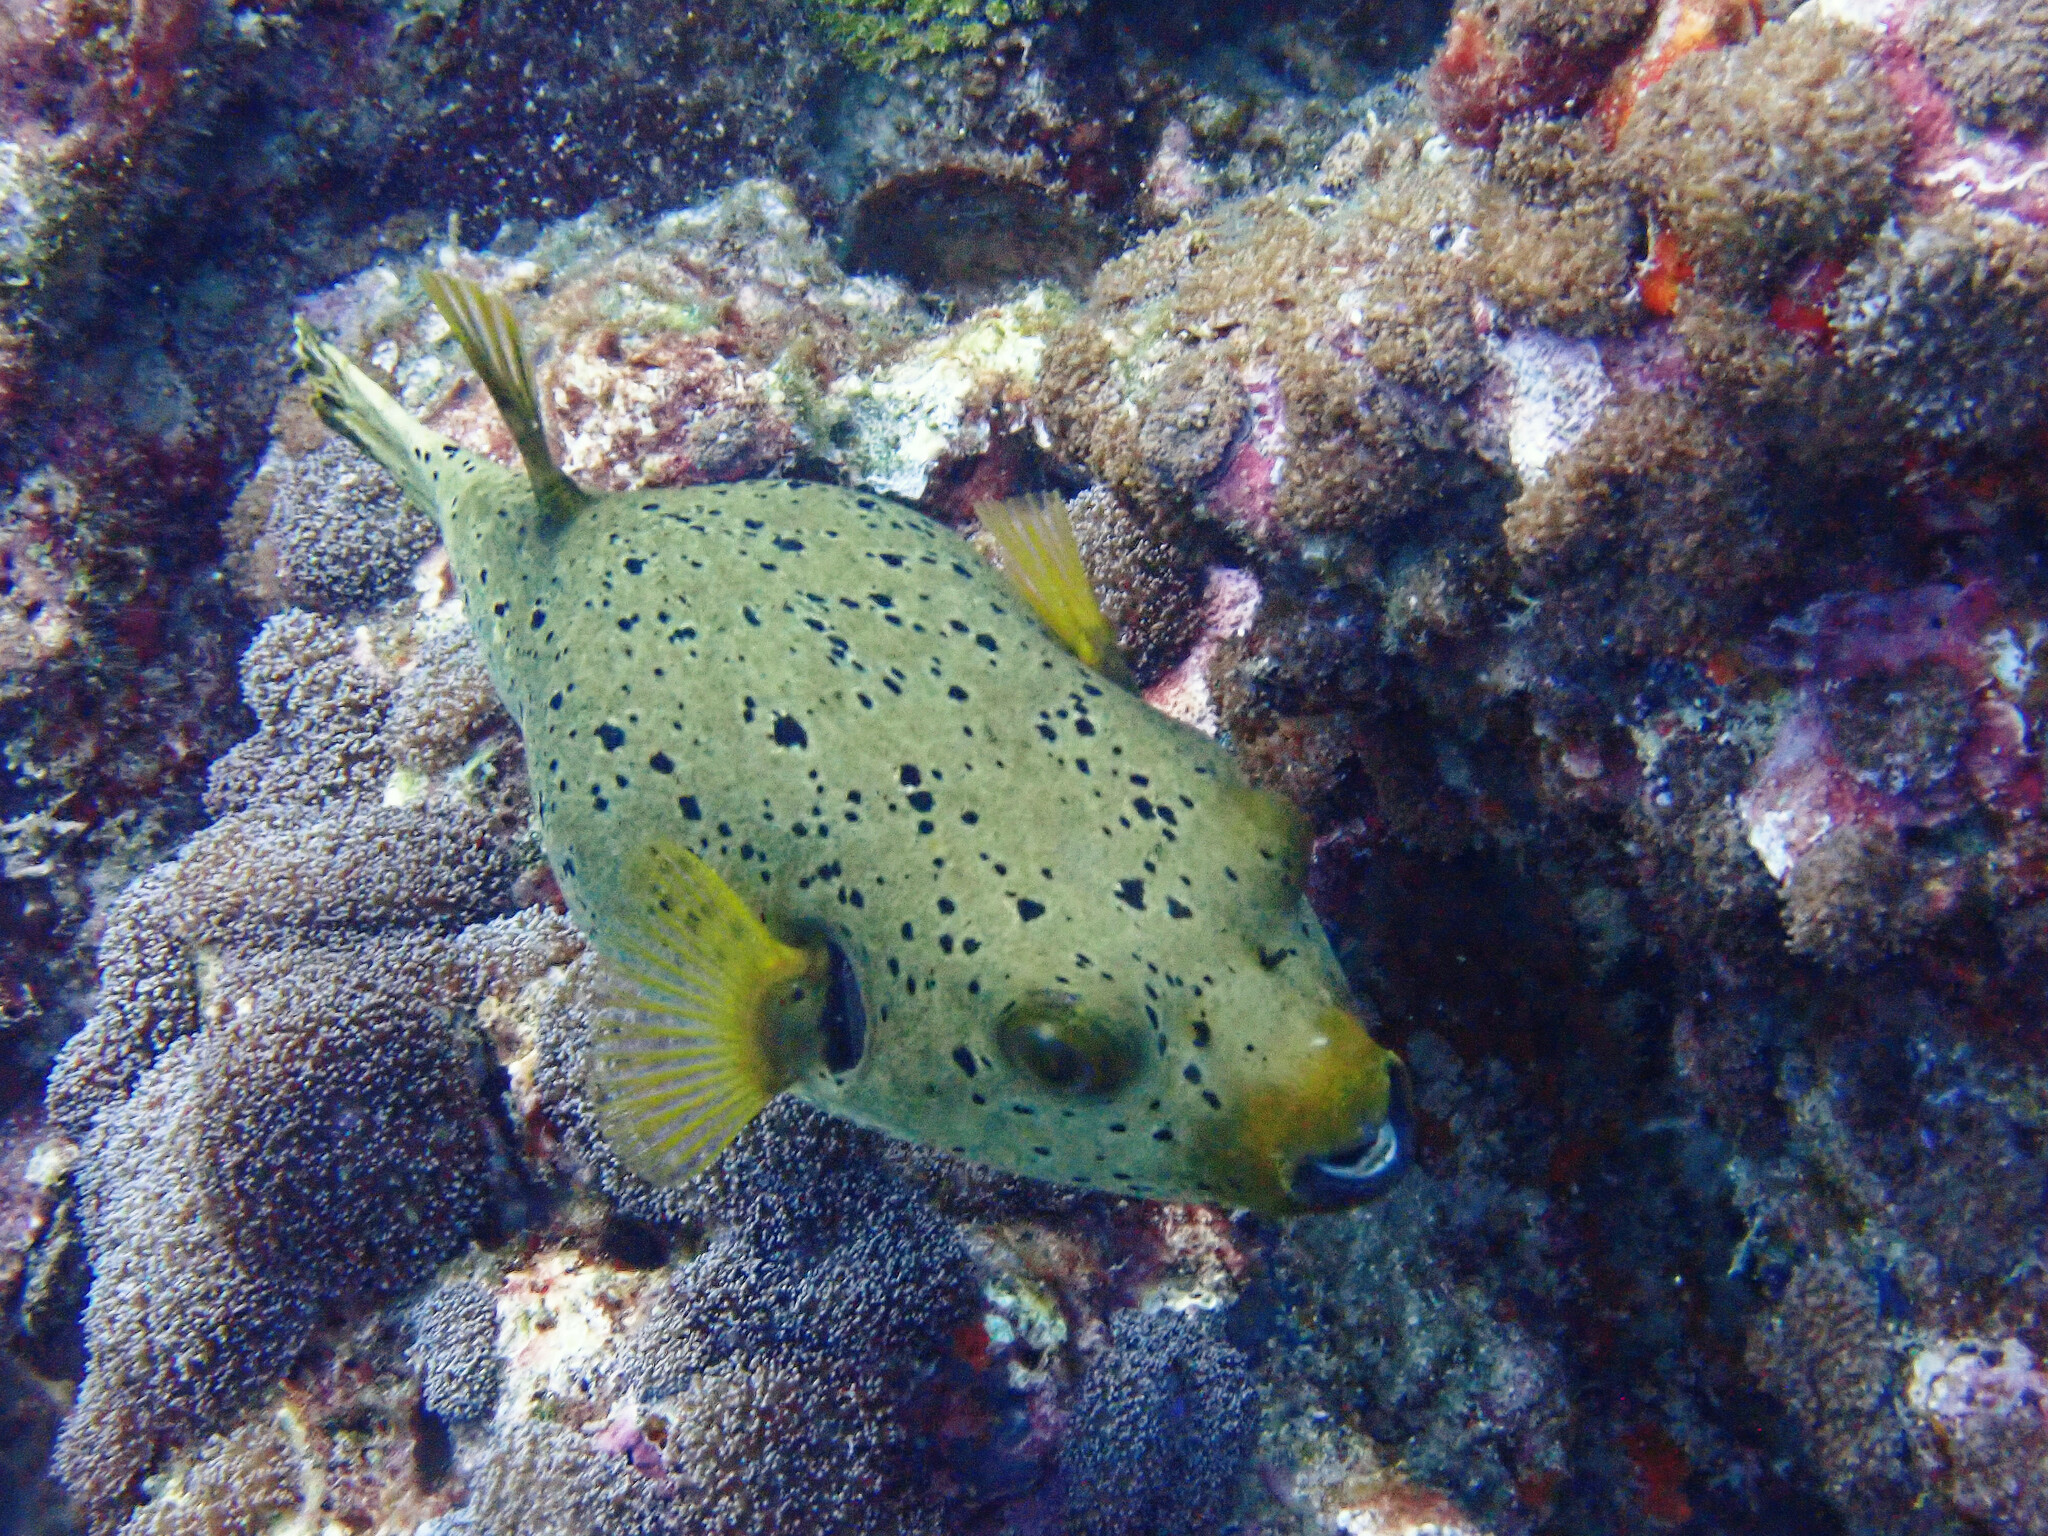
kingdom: Animalia
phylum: Chordata
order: Tetraodontiformes
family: Tetraodontidae
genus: Arothron
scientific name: Arothron nigropunctatus
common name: Black spotted blow fish
